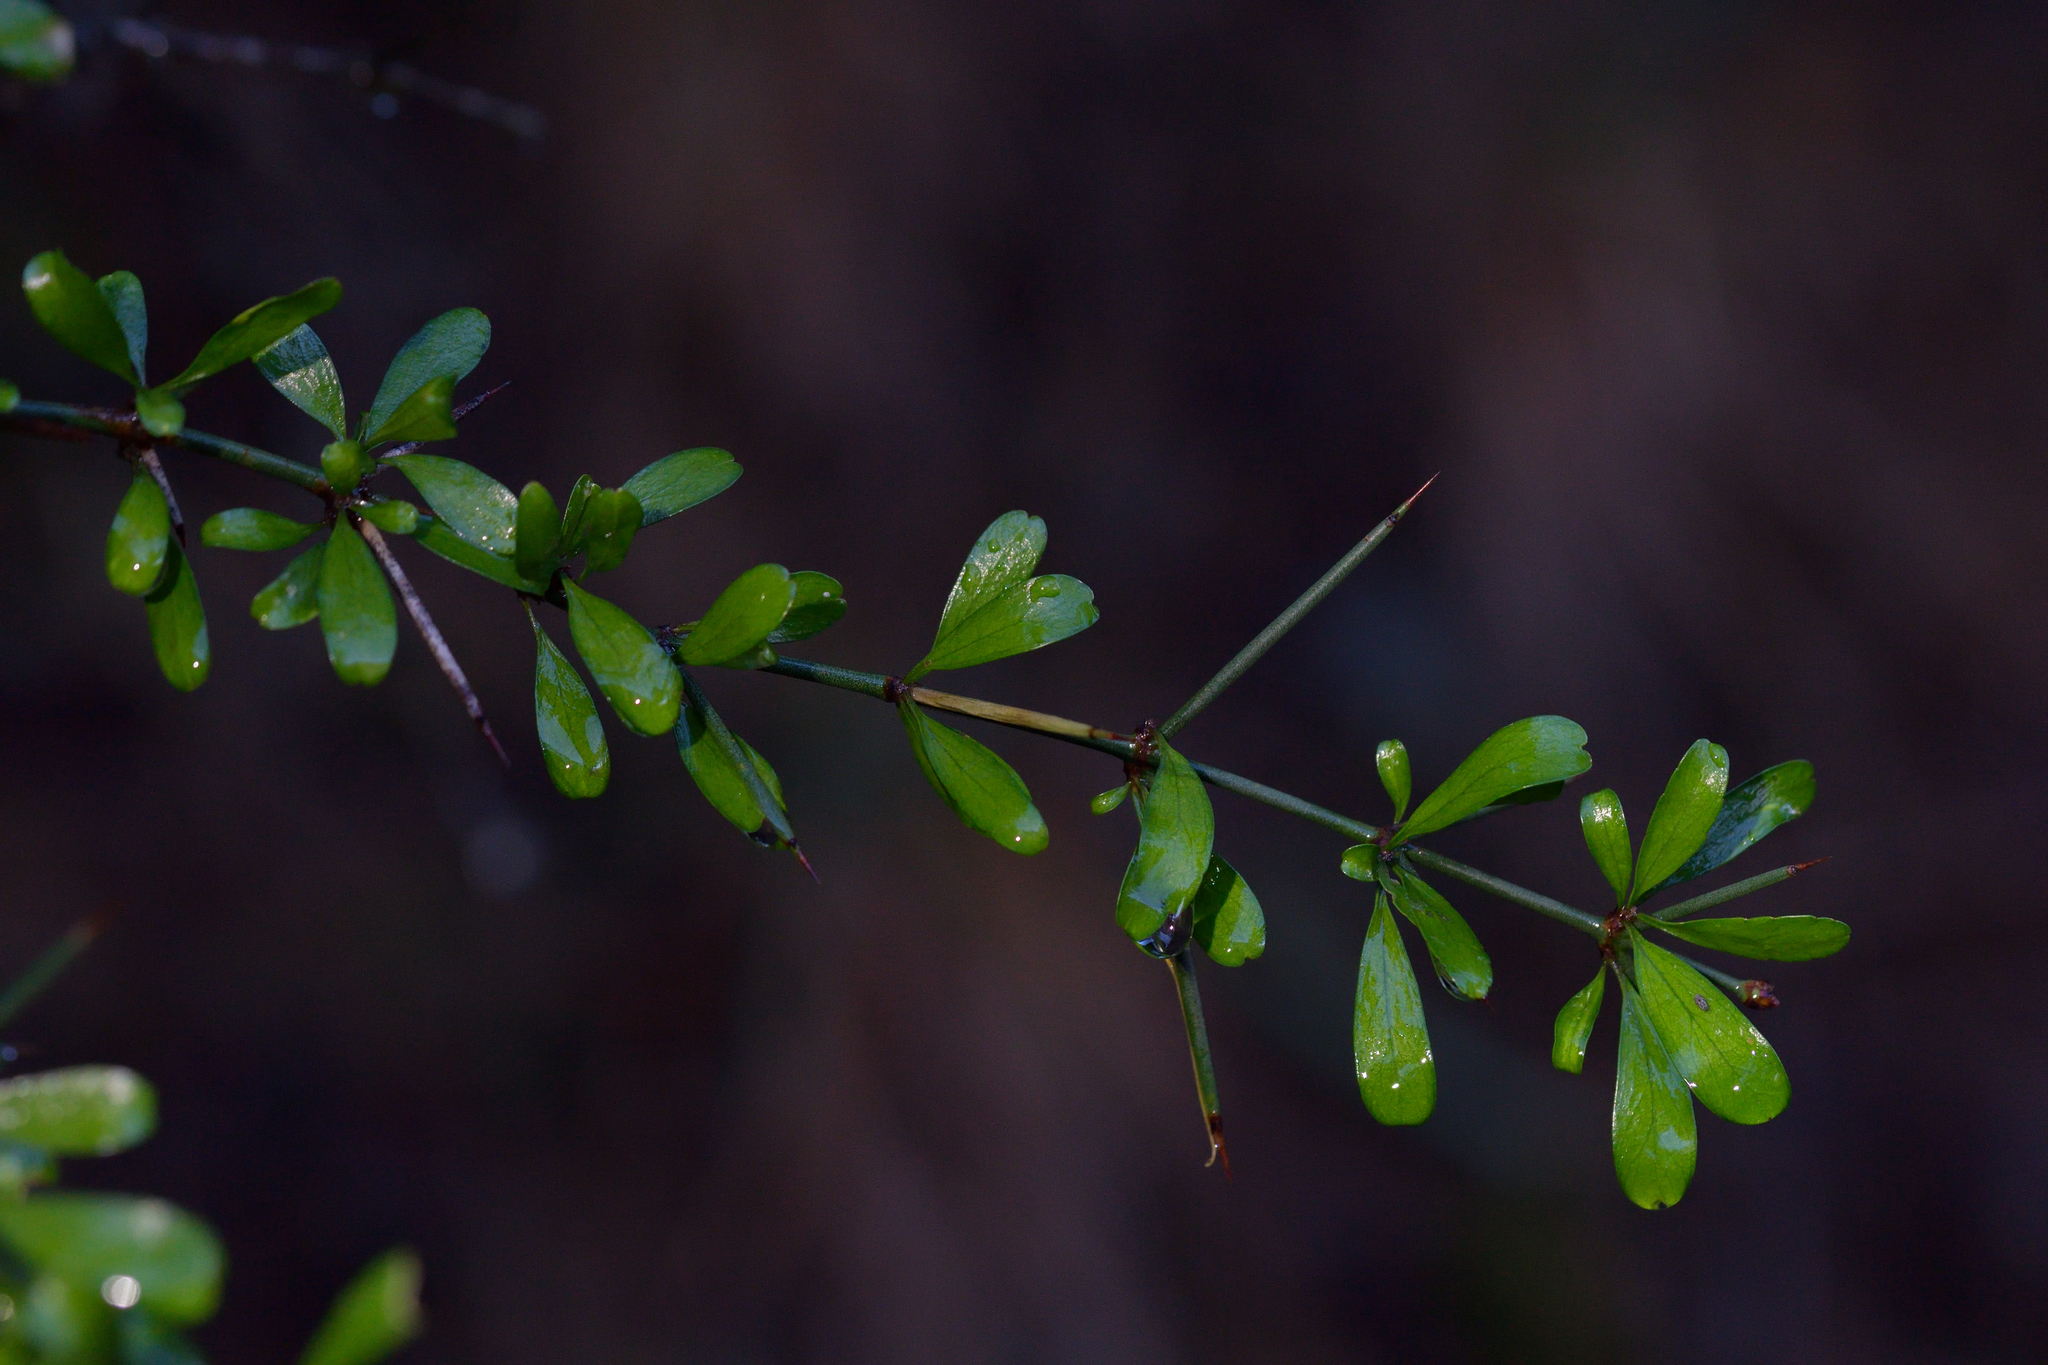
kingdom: Plantae
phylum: Tracheophyta
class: Magnoliopsida
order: Rosales
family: Rhamnaceae
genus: Discaria
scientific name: Discaria toumatou
